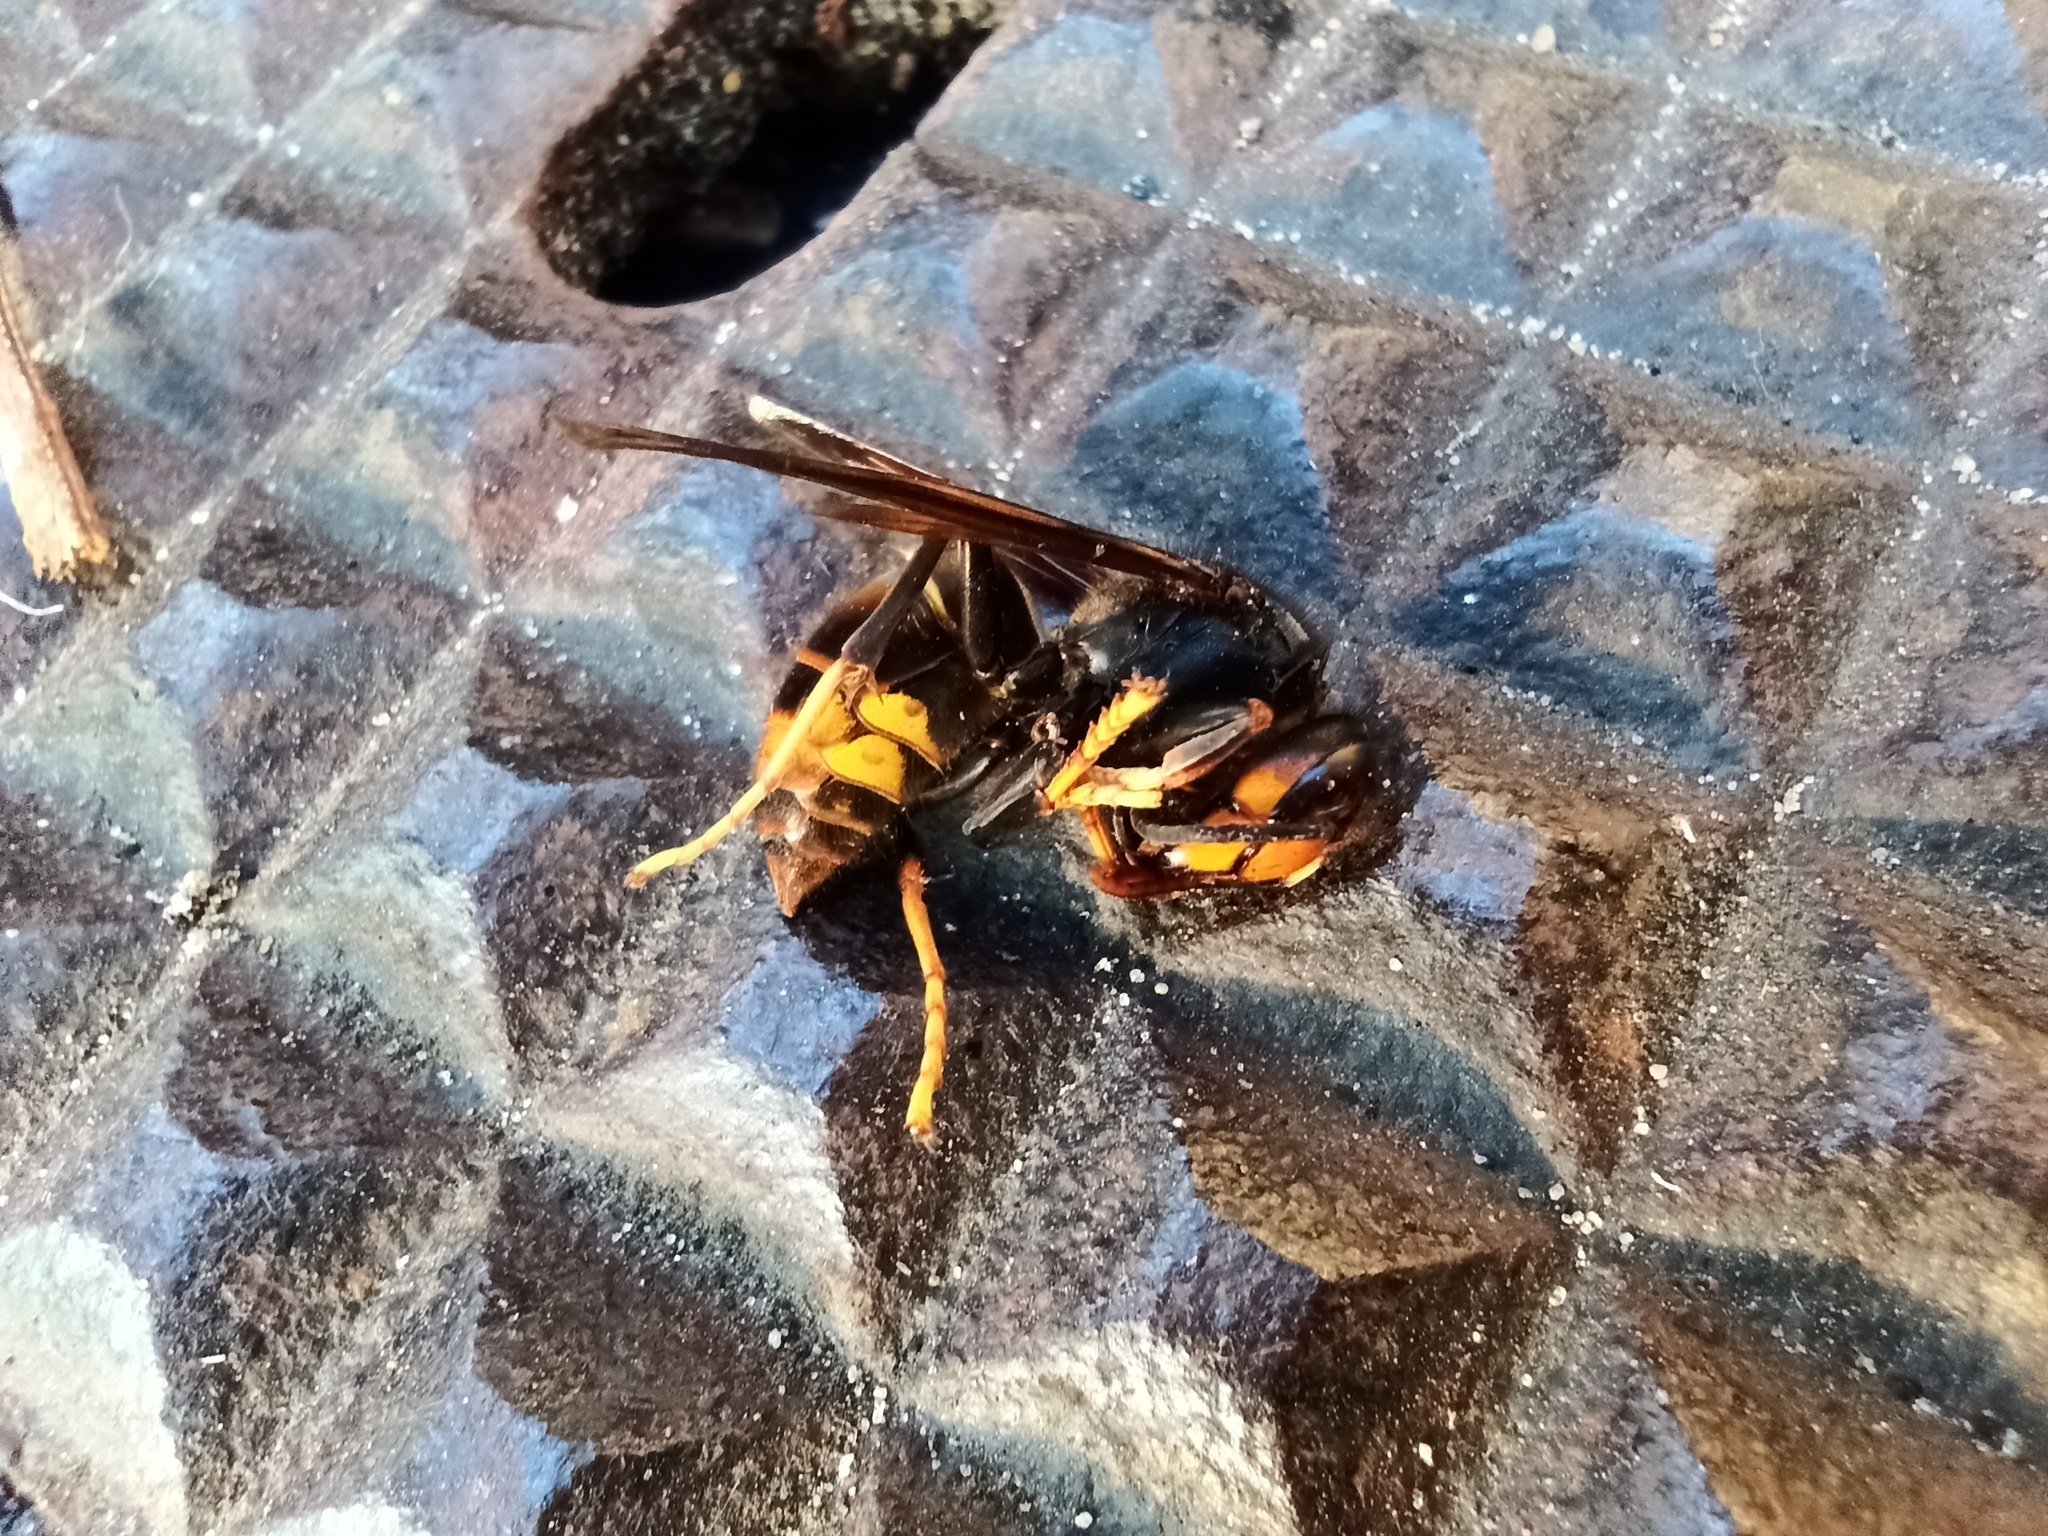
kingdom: Animalia
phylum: Arthropoda
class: Insecta
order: Hymenoptera
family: Vespidae
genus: Vespa
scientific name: Vespa velutina
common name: Asian hornet
